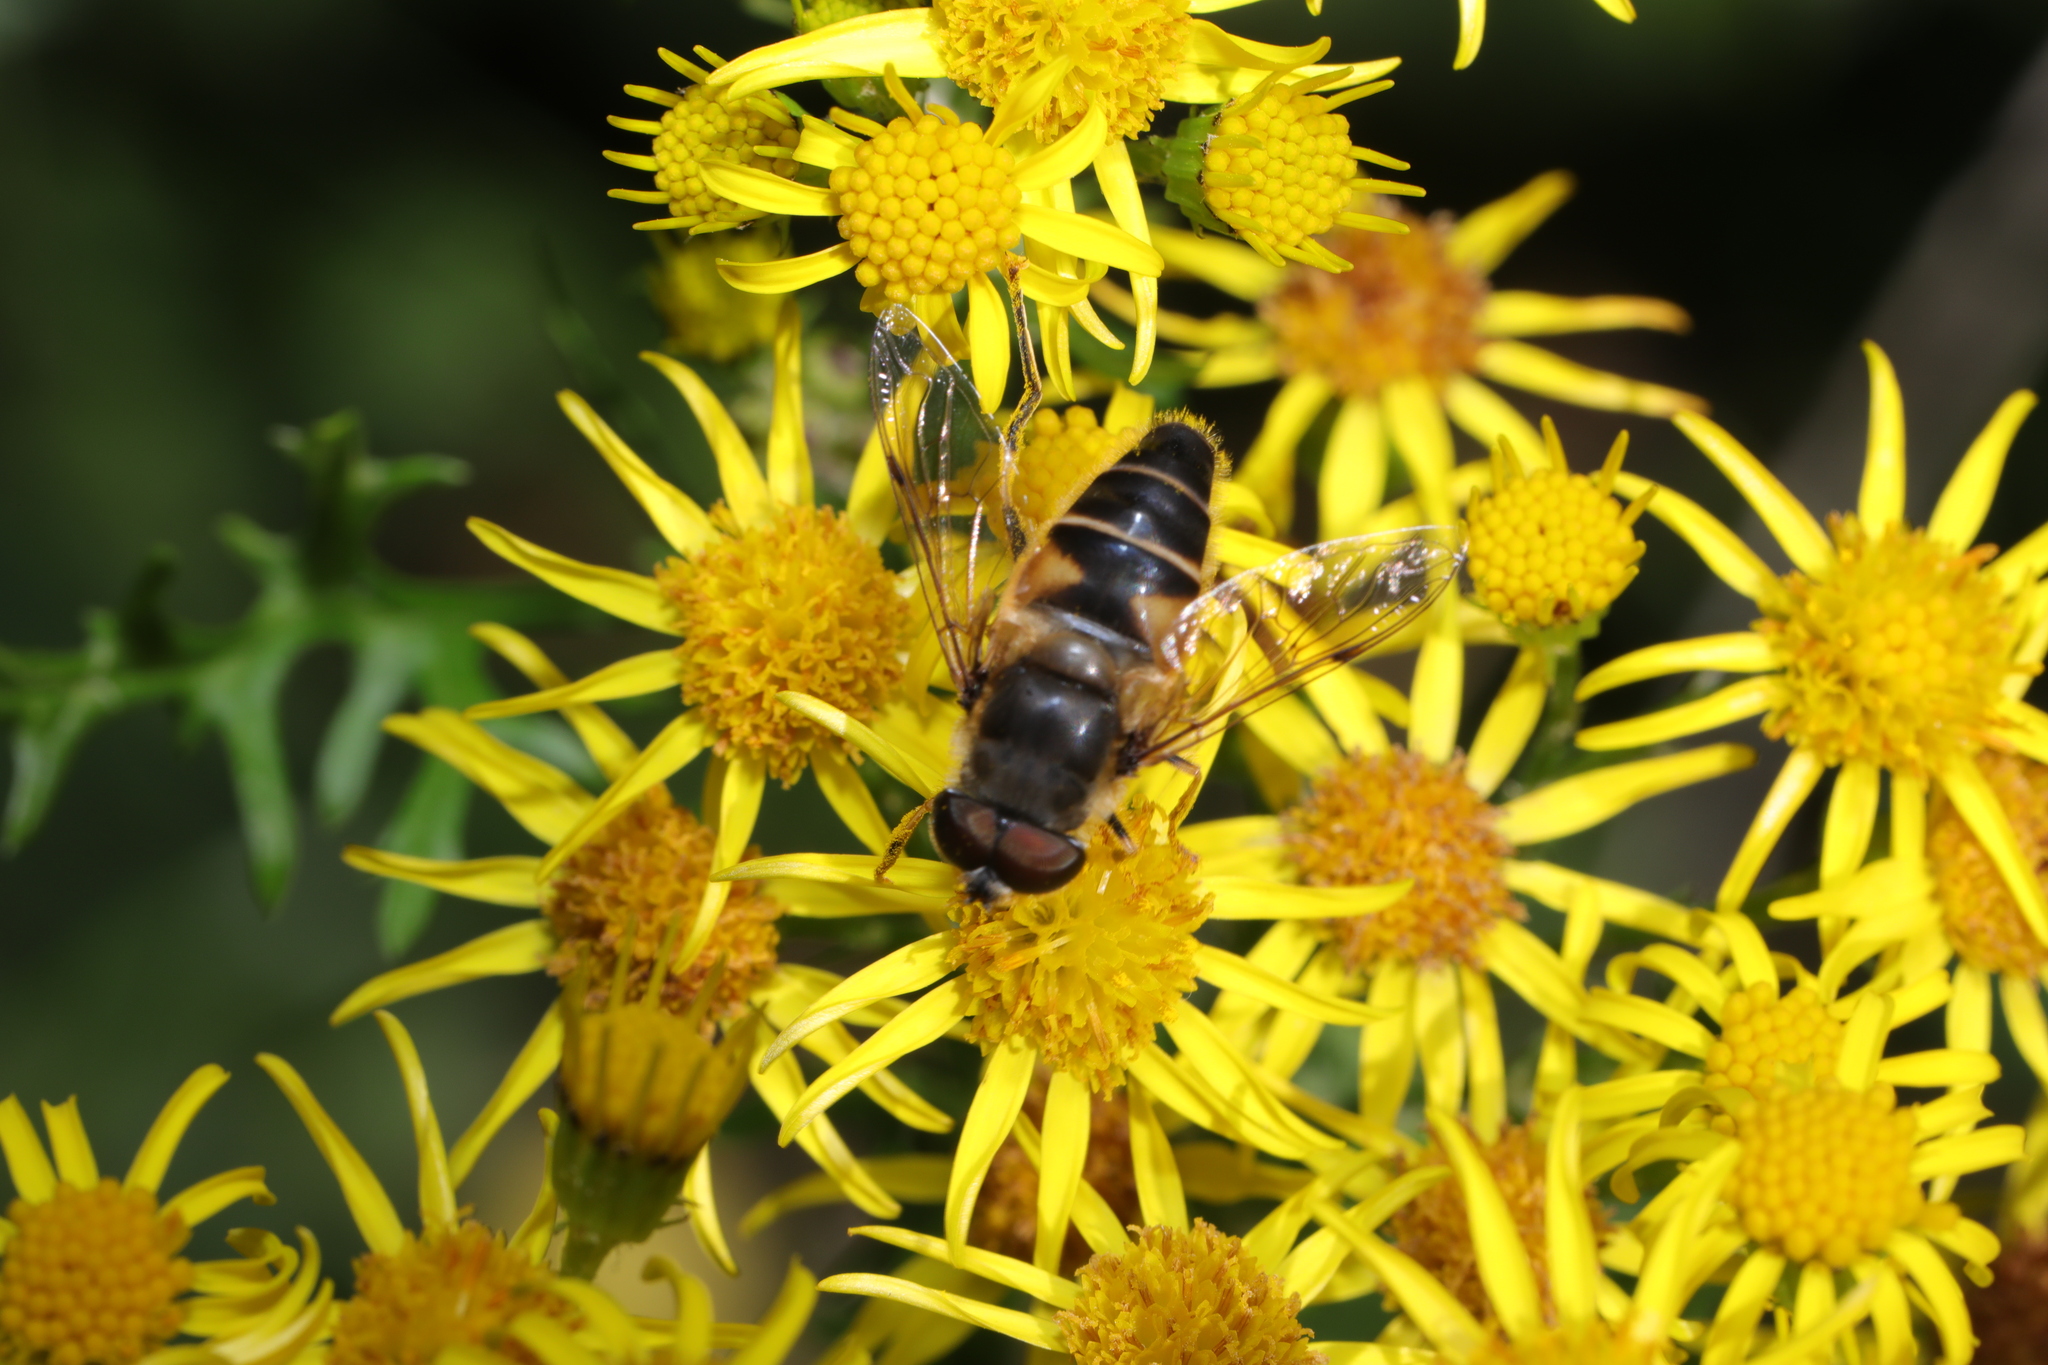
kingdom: Animalia
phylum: Arthropoda
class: Insecta
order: Diptera
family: Syrphidae
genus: Eristalis
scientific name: Eristalis pertinax
